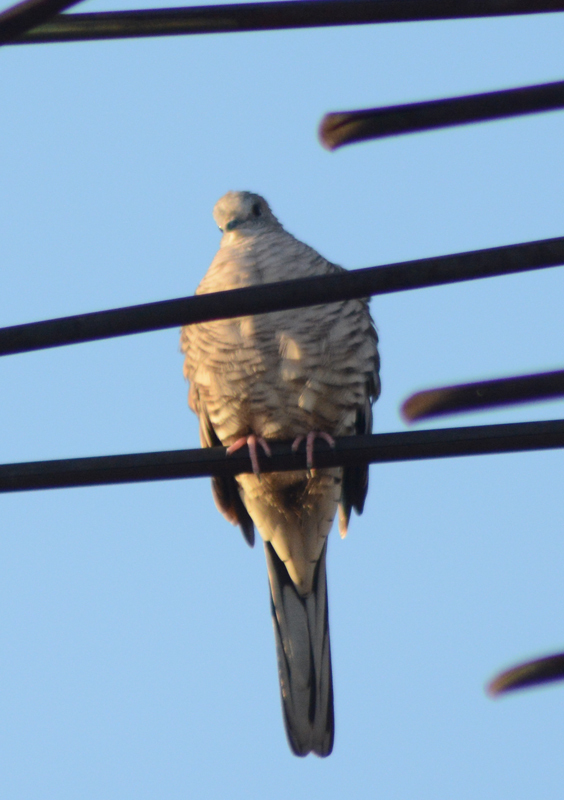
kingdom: Animalia
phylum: Chordata
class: Aves
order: Columbiformes
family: Columbidae
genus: Columbina
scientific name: Columbina inca
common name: Inca dove
